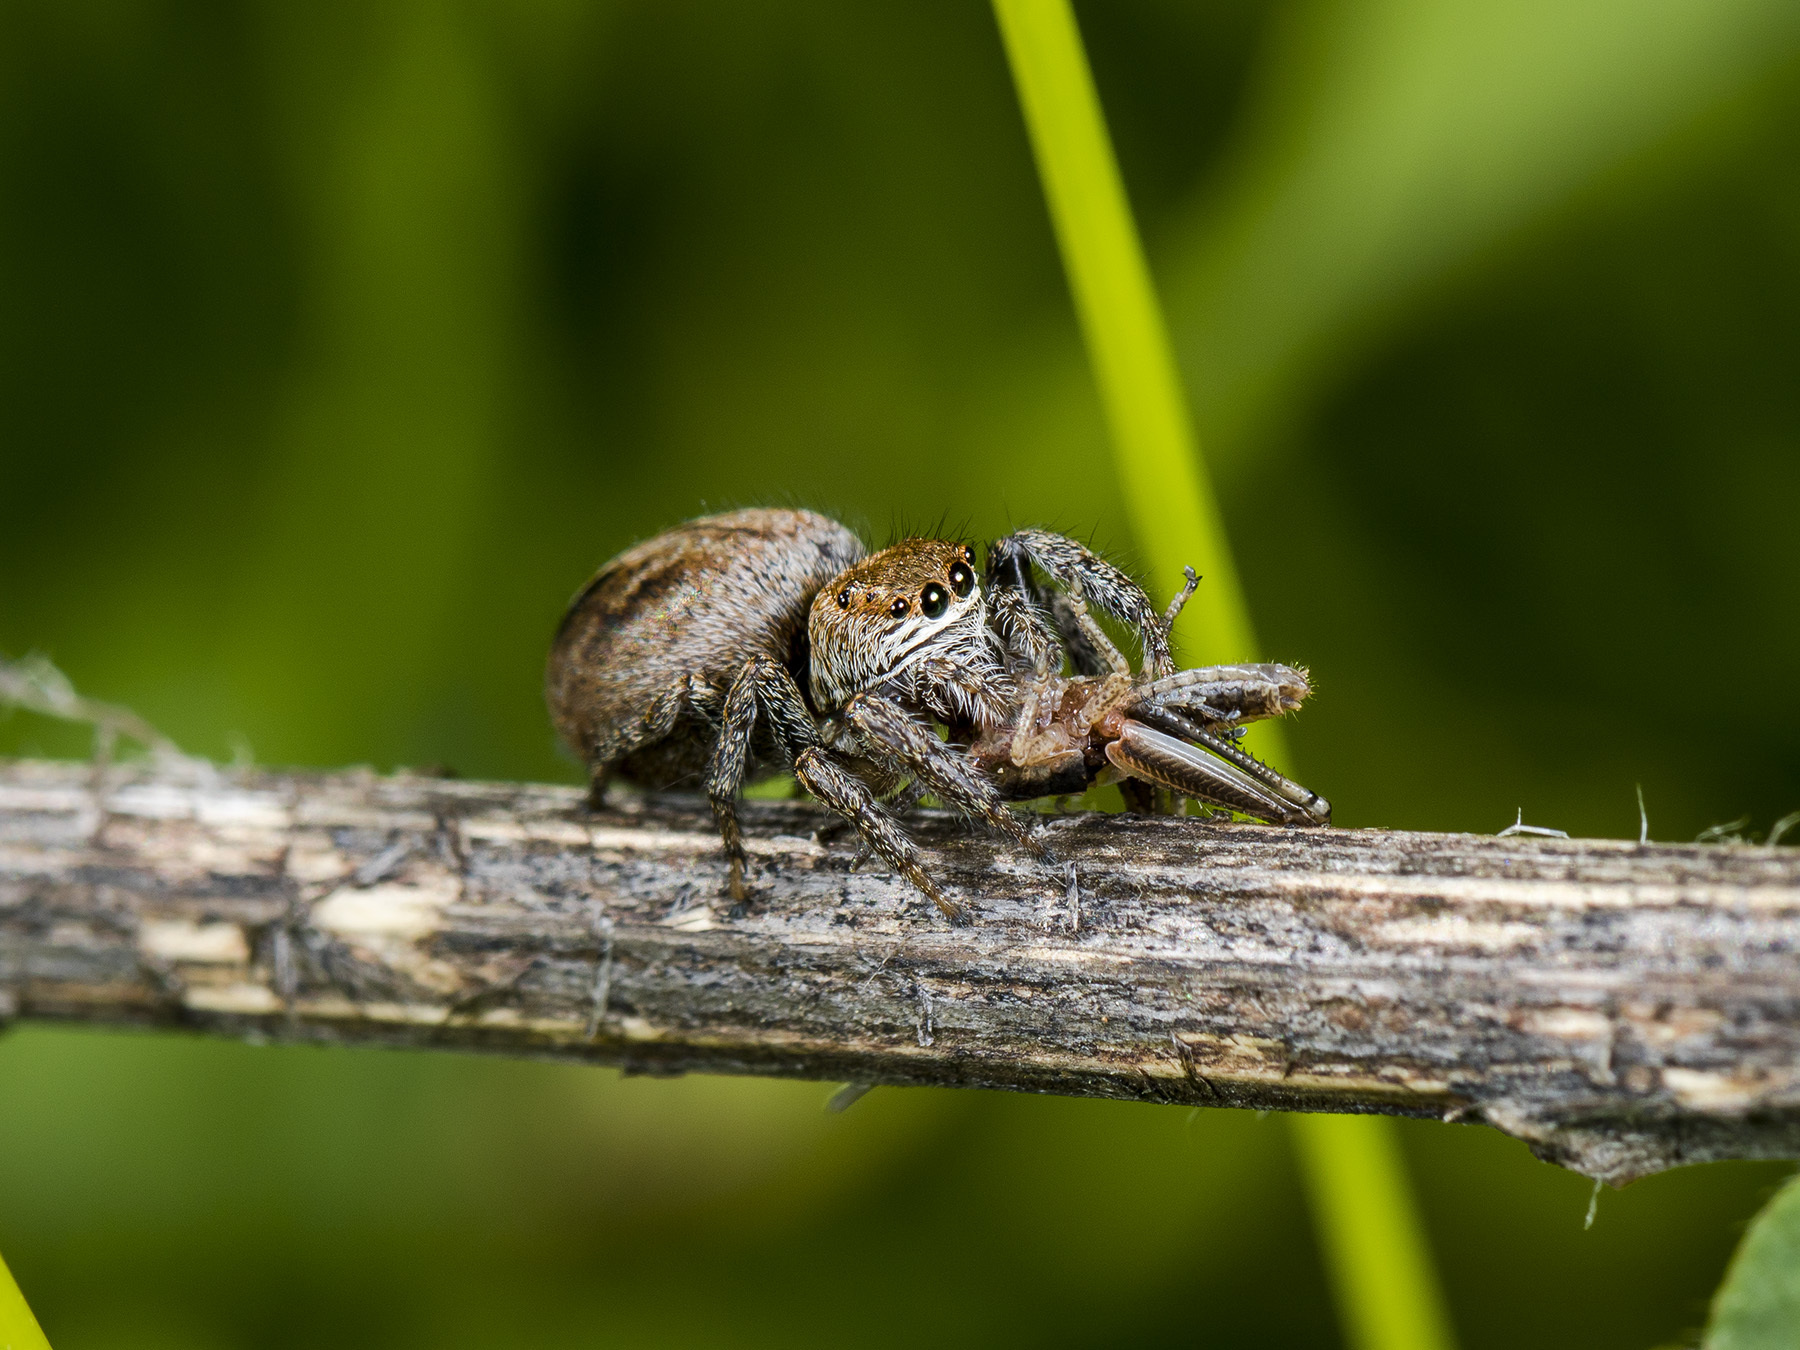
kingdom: Animalia
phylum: Arthropoda
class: Arachnida
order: Araneae
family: Salticidae
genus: Evarcha
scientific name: Evarcha arcuata
